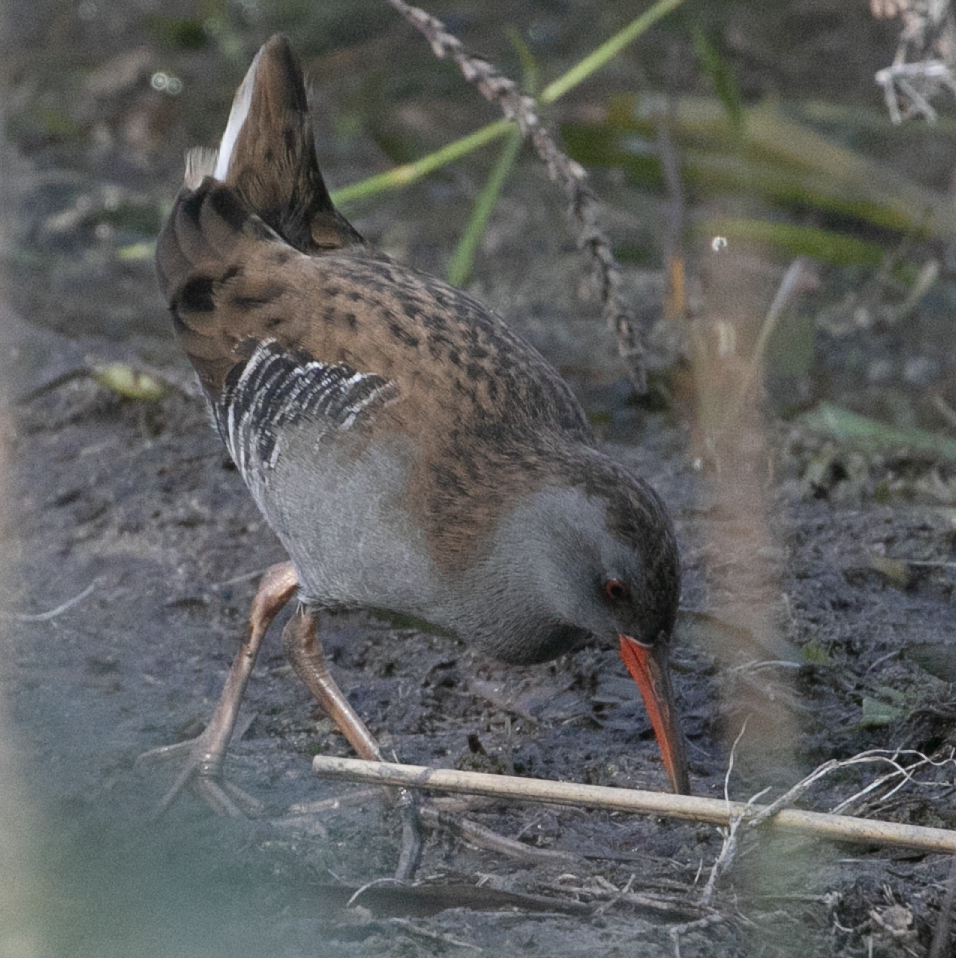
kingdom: Animalia
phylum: Chordata
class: Aves
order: Gruiformes
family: Rallidae
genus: Rallus
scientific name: Rallus aquaticus
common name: Water rail
